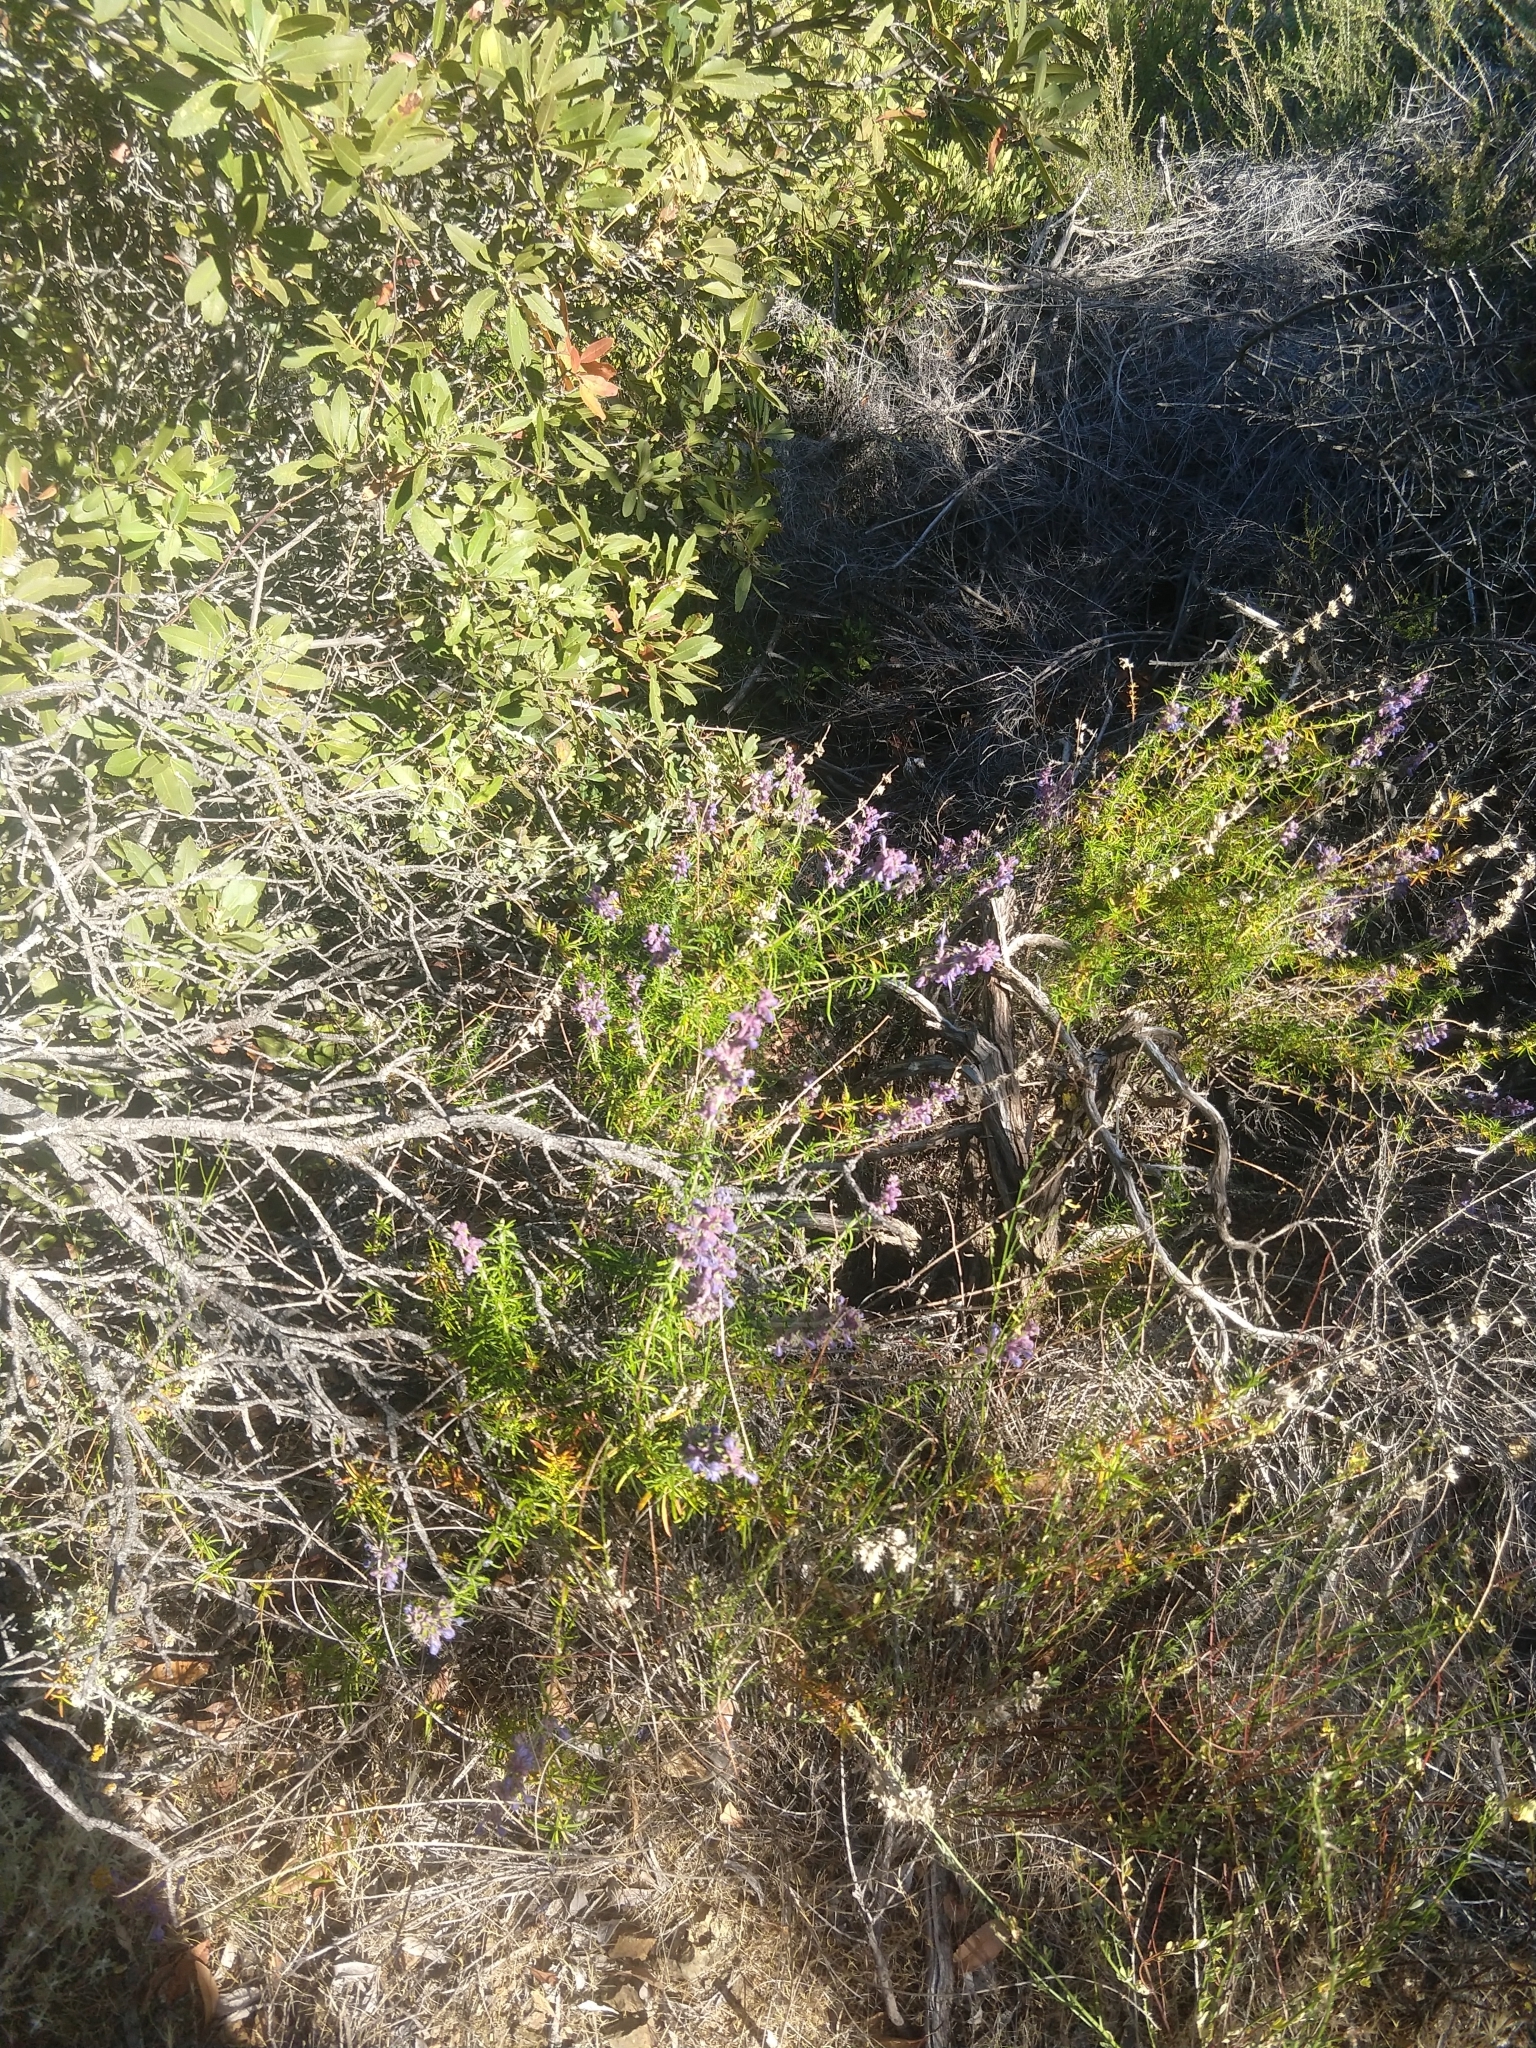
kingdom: Plantae
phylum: Tracheophyta
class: Magnoliopsida
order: Lamiales
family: Lamiaceae
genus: Trichostema
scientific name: Trichostema lanatum
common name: Woolly bluecurls
